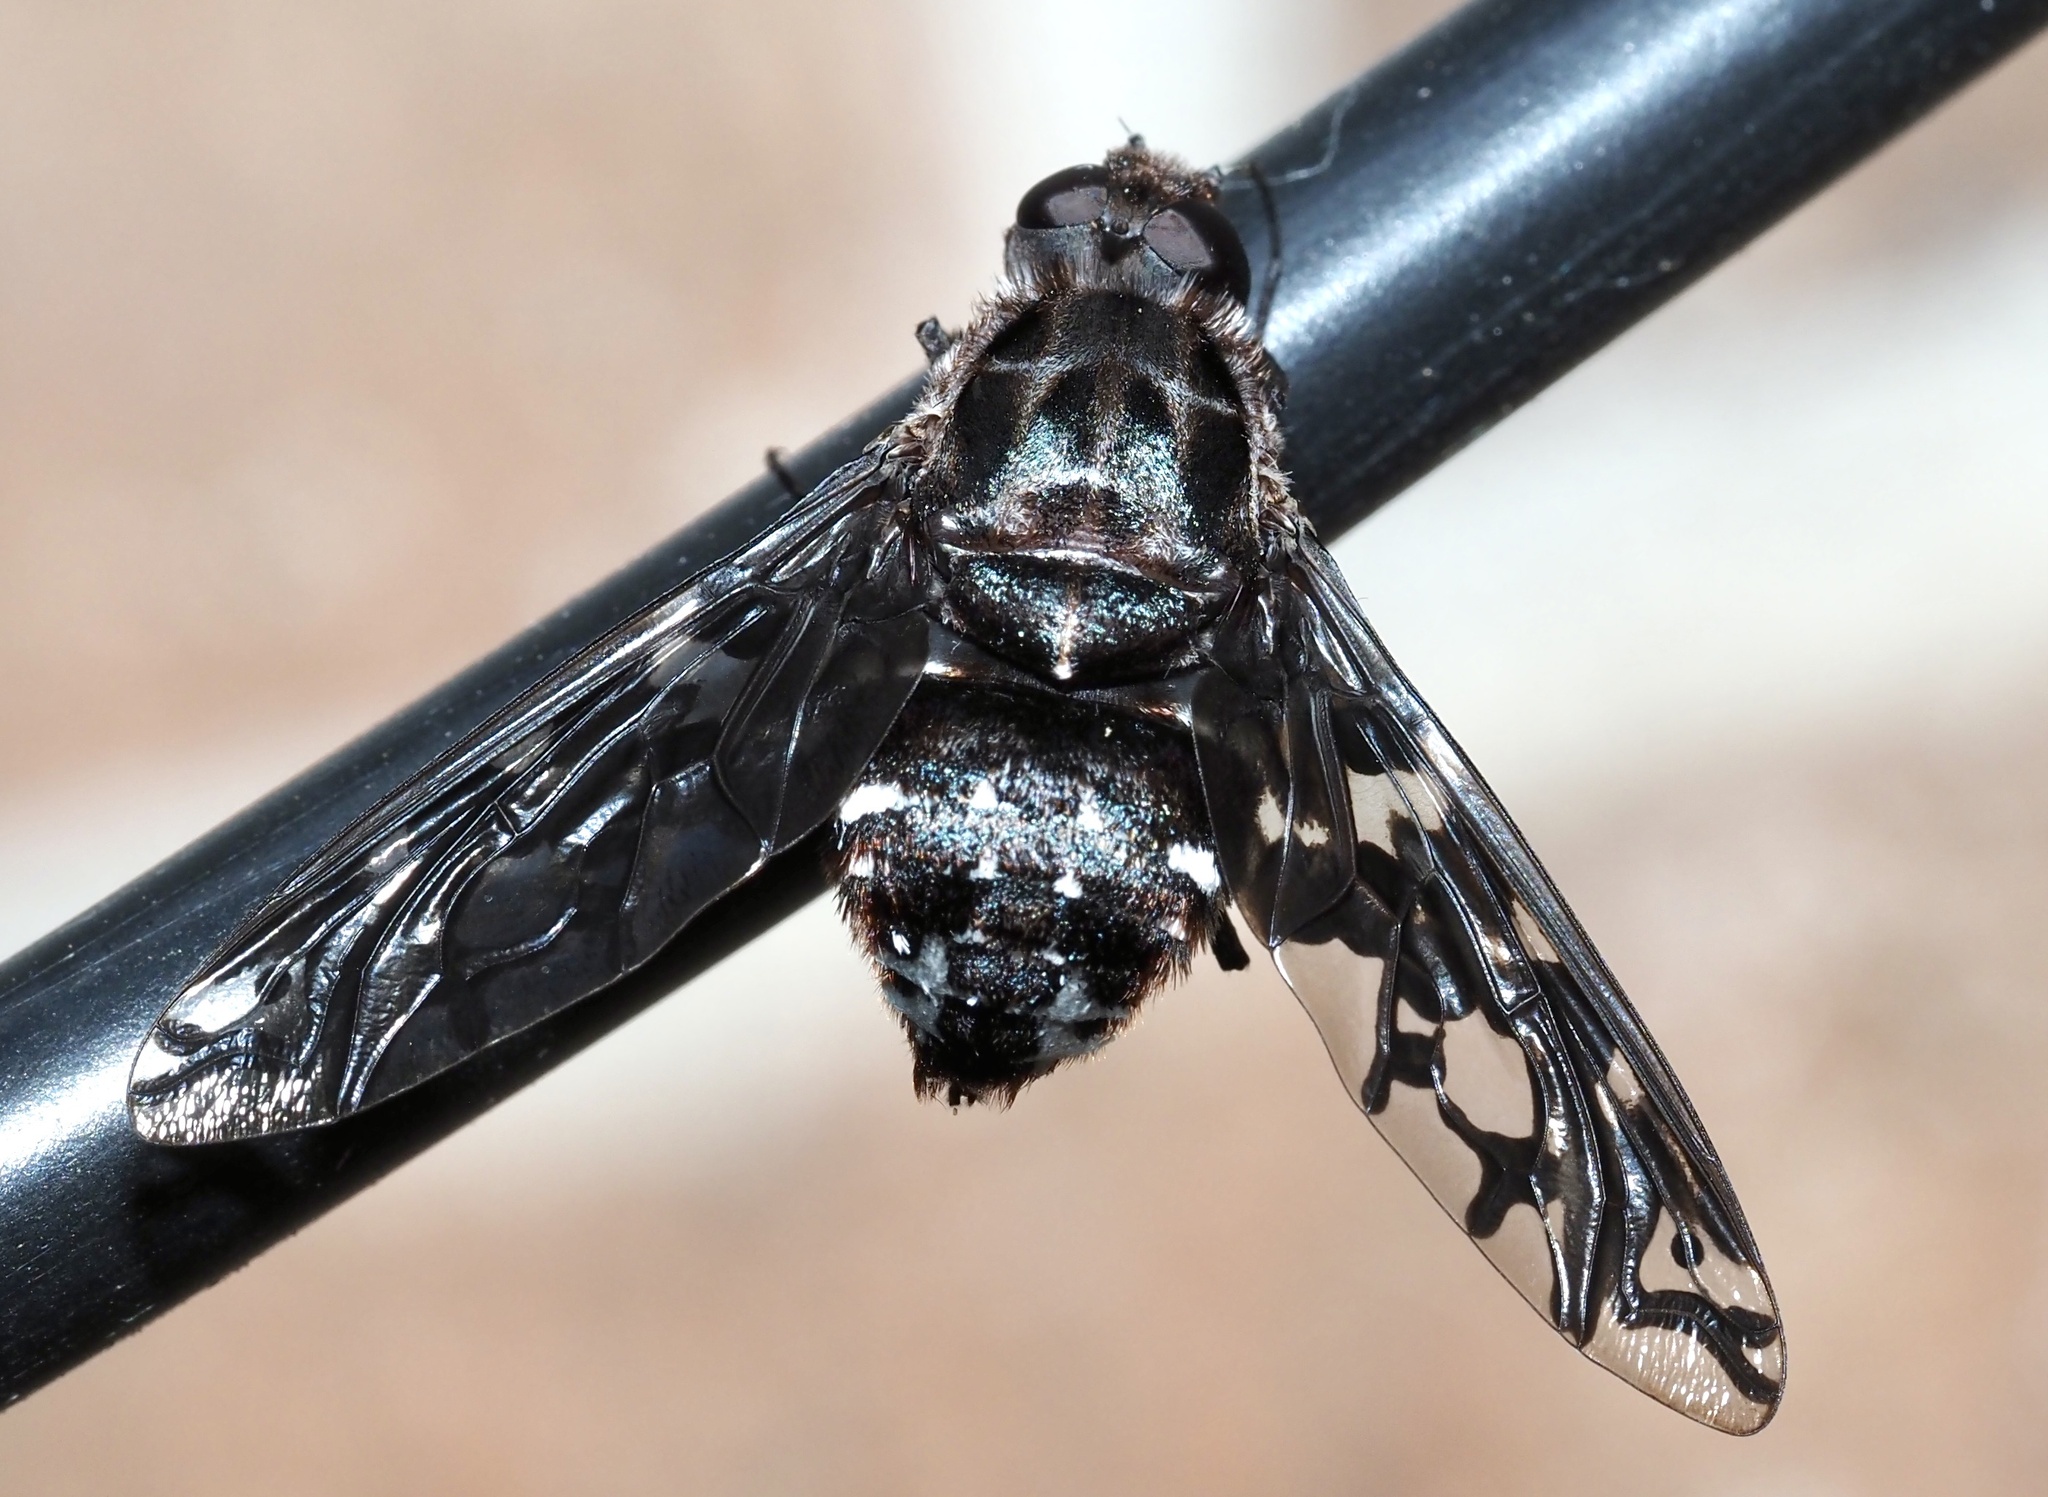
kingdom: Animalia
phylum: Arthropoda
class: Insecta
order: Diptera
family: Bombyliidae
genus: Xenox
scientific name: Xenox tigrinus
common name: Tiger bee fly
